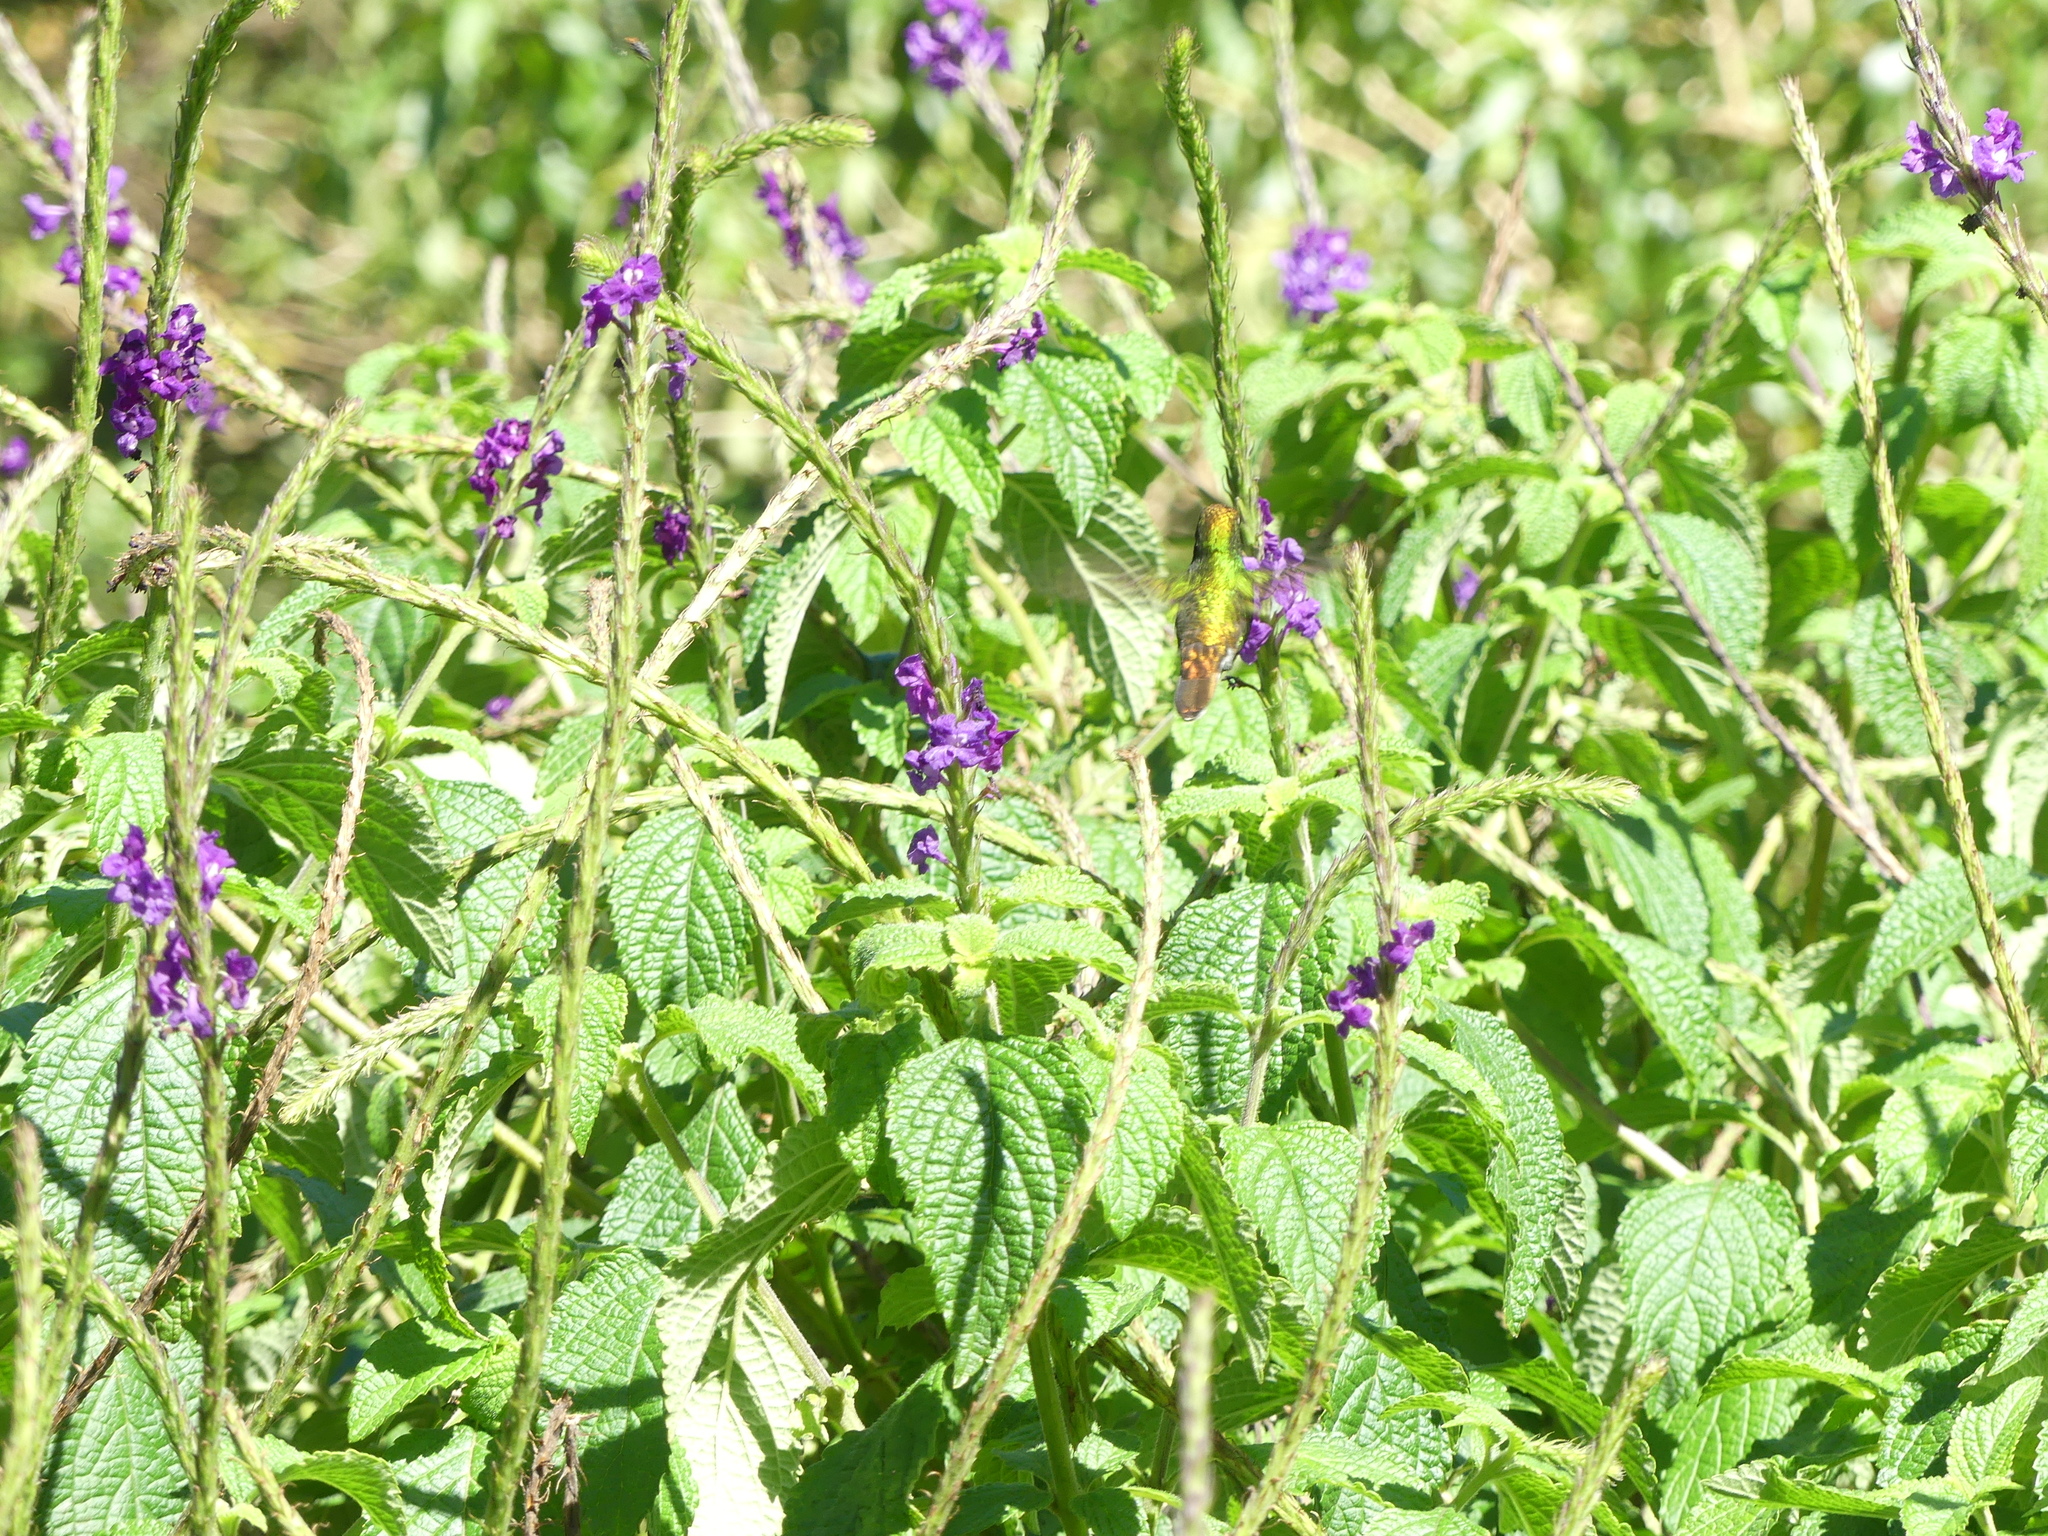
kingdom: Animalia
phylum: Chordata
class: Aves
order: Apodiformes
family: Trochilidae
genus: Microchera
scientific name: Microchera cupreiceps
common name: Coppery-headed emerald
